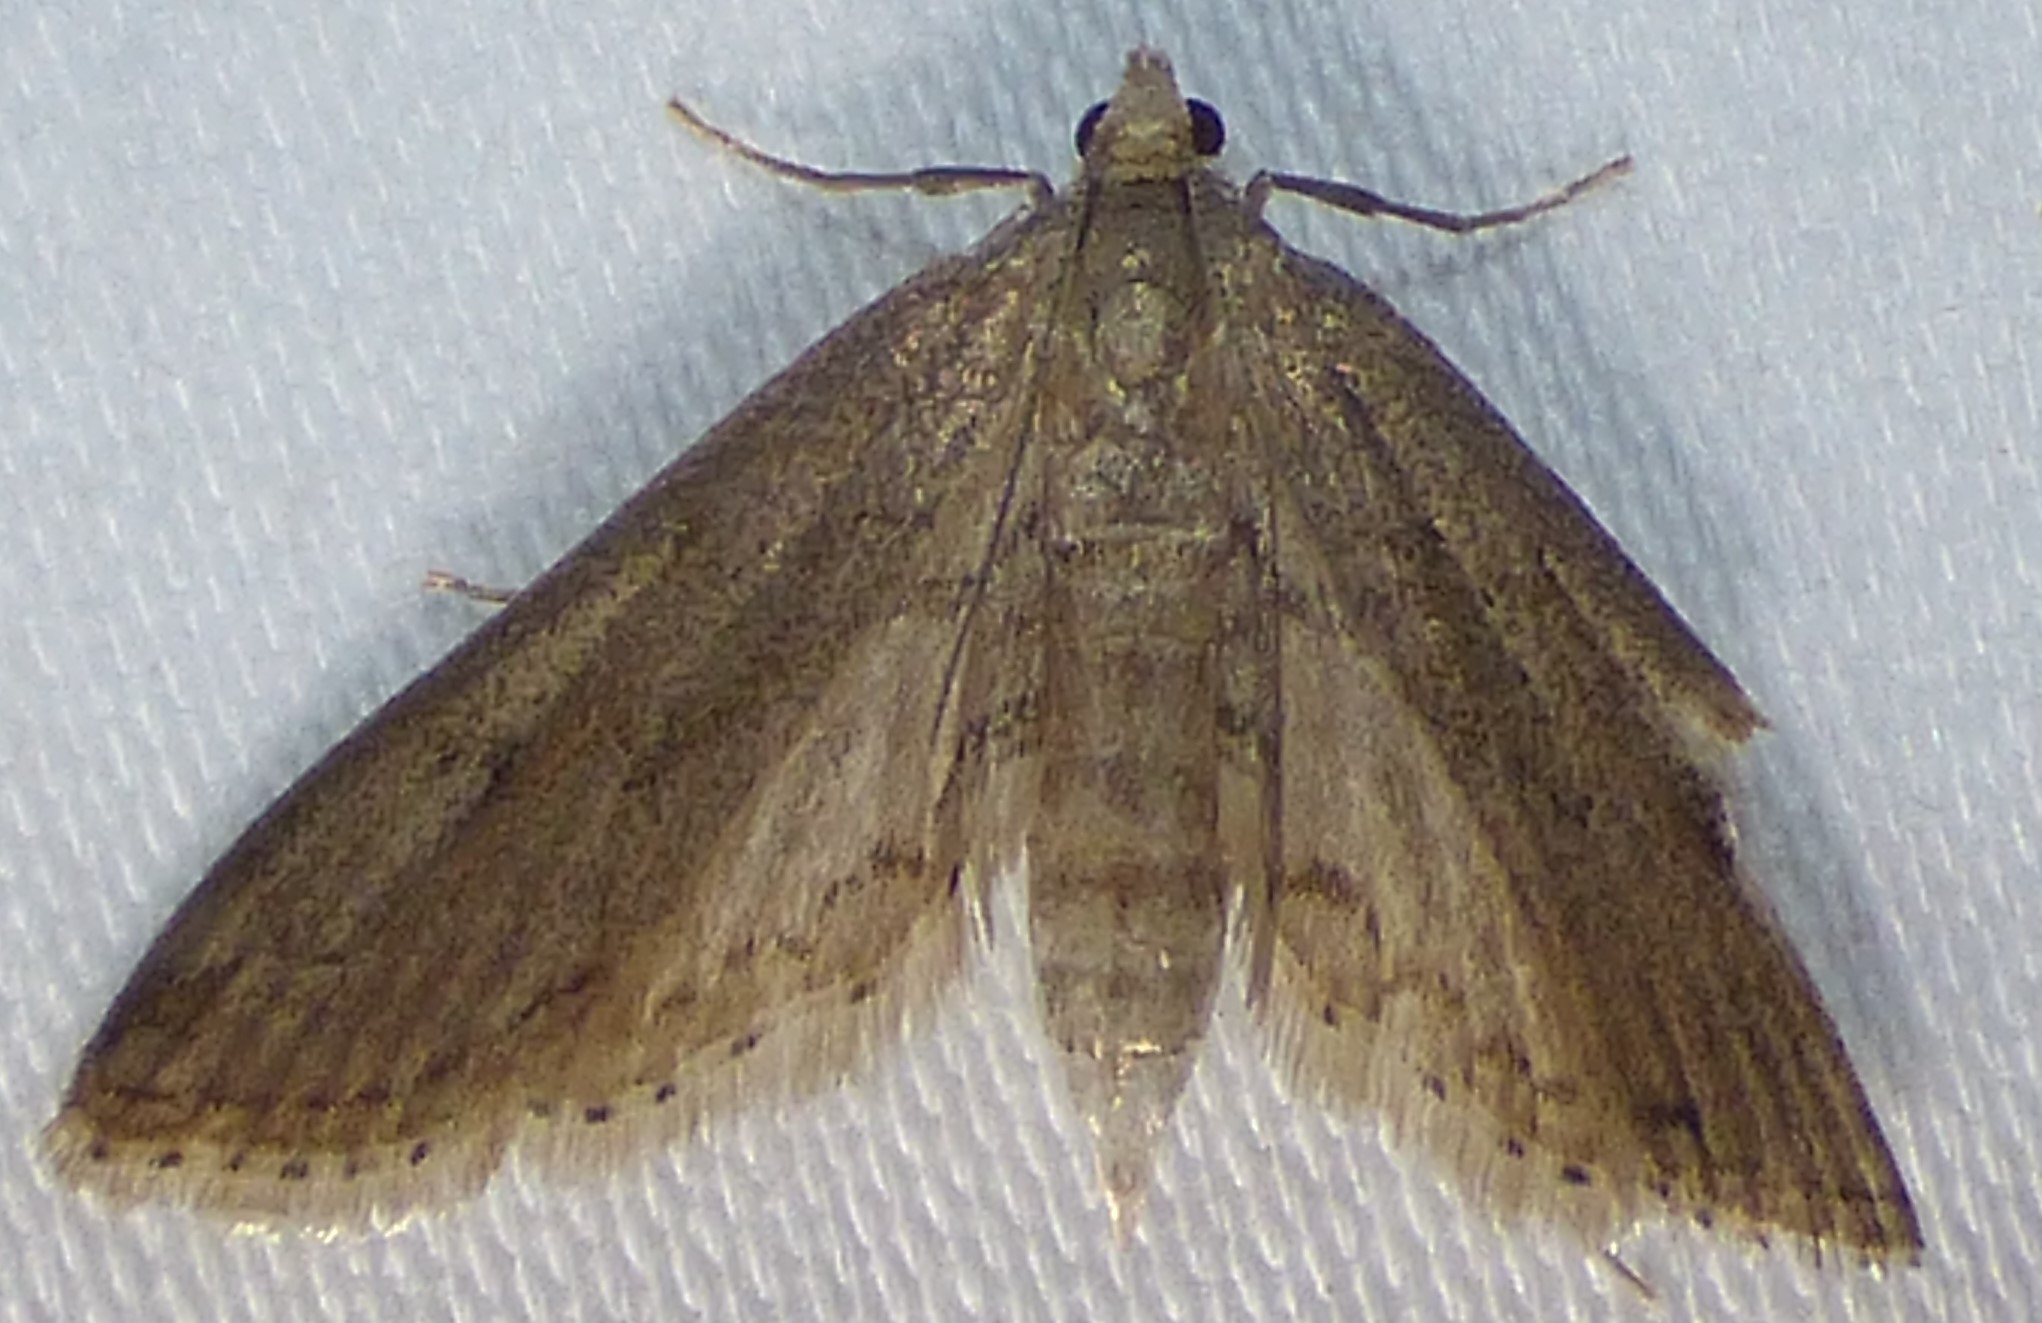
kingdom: Animalia
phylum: Arthropoda
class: Insecta
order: Lepidoptera
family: Crambidae
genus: Parapoynx
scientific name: Parapoynx allionealis
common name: Bladderwort casemaker
